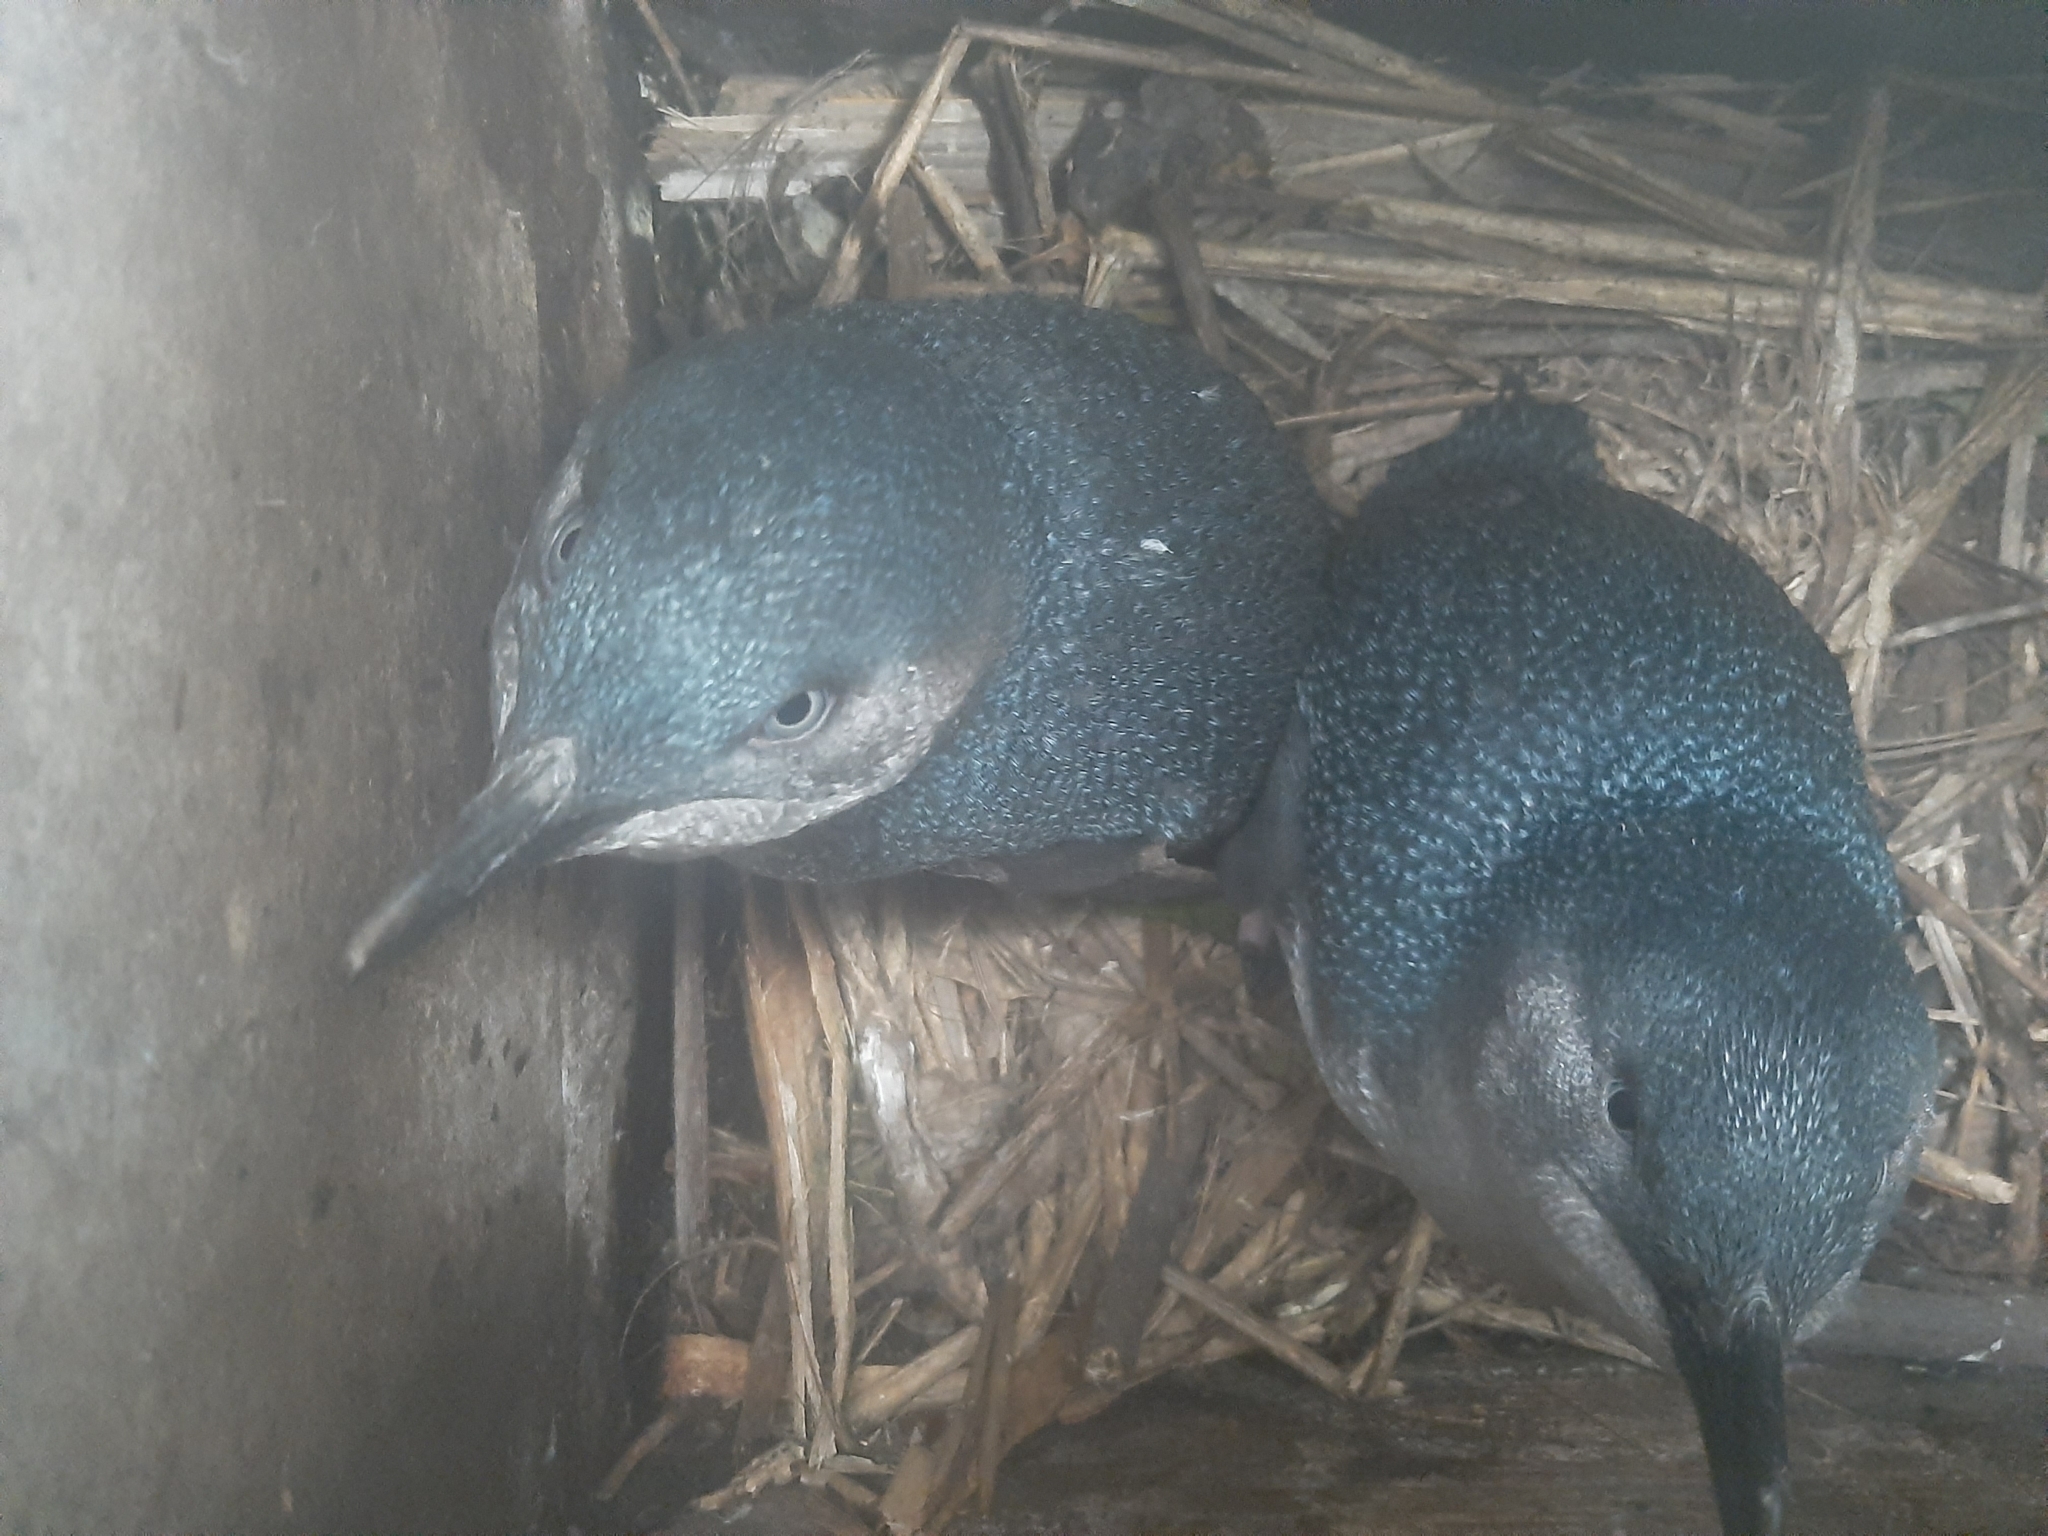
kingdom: Animalia
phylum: Chordata
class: Aves
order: Sphenisciformes
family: Spheniscidae
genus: Eudyptula
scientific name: Eudyptula minor
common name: Little penguin
